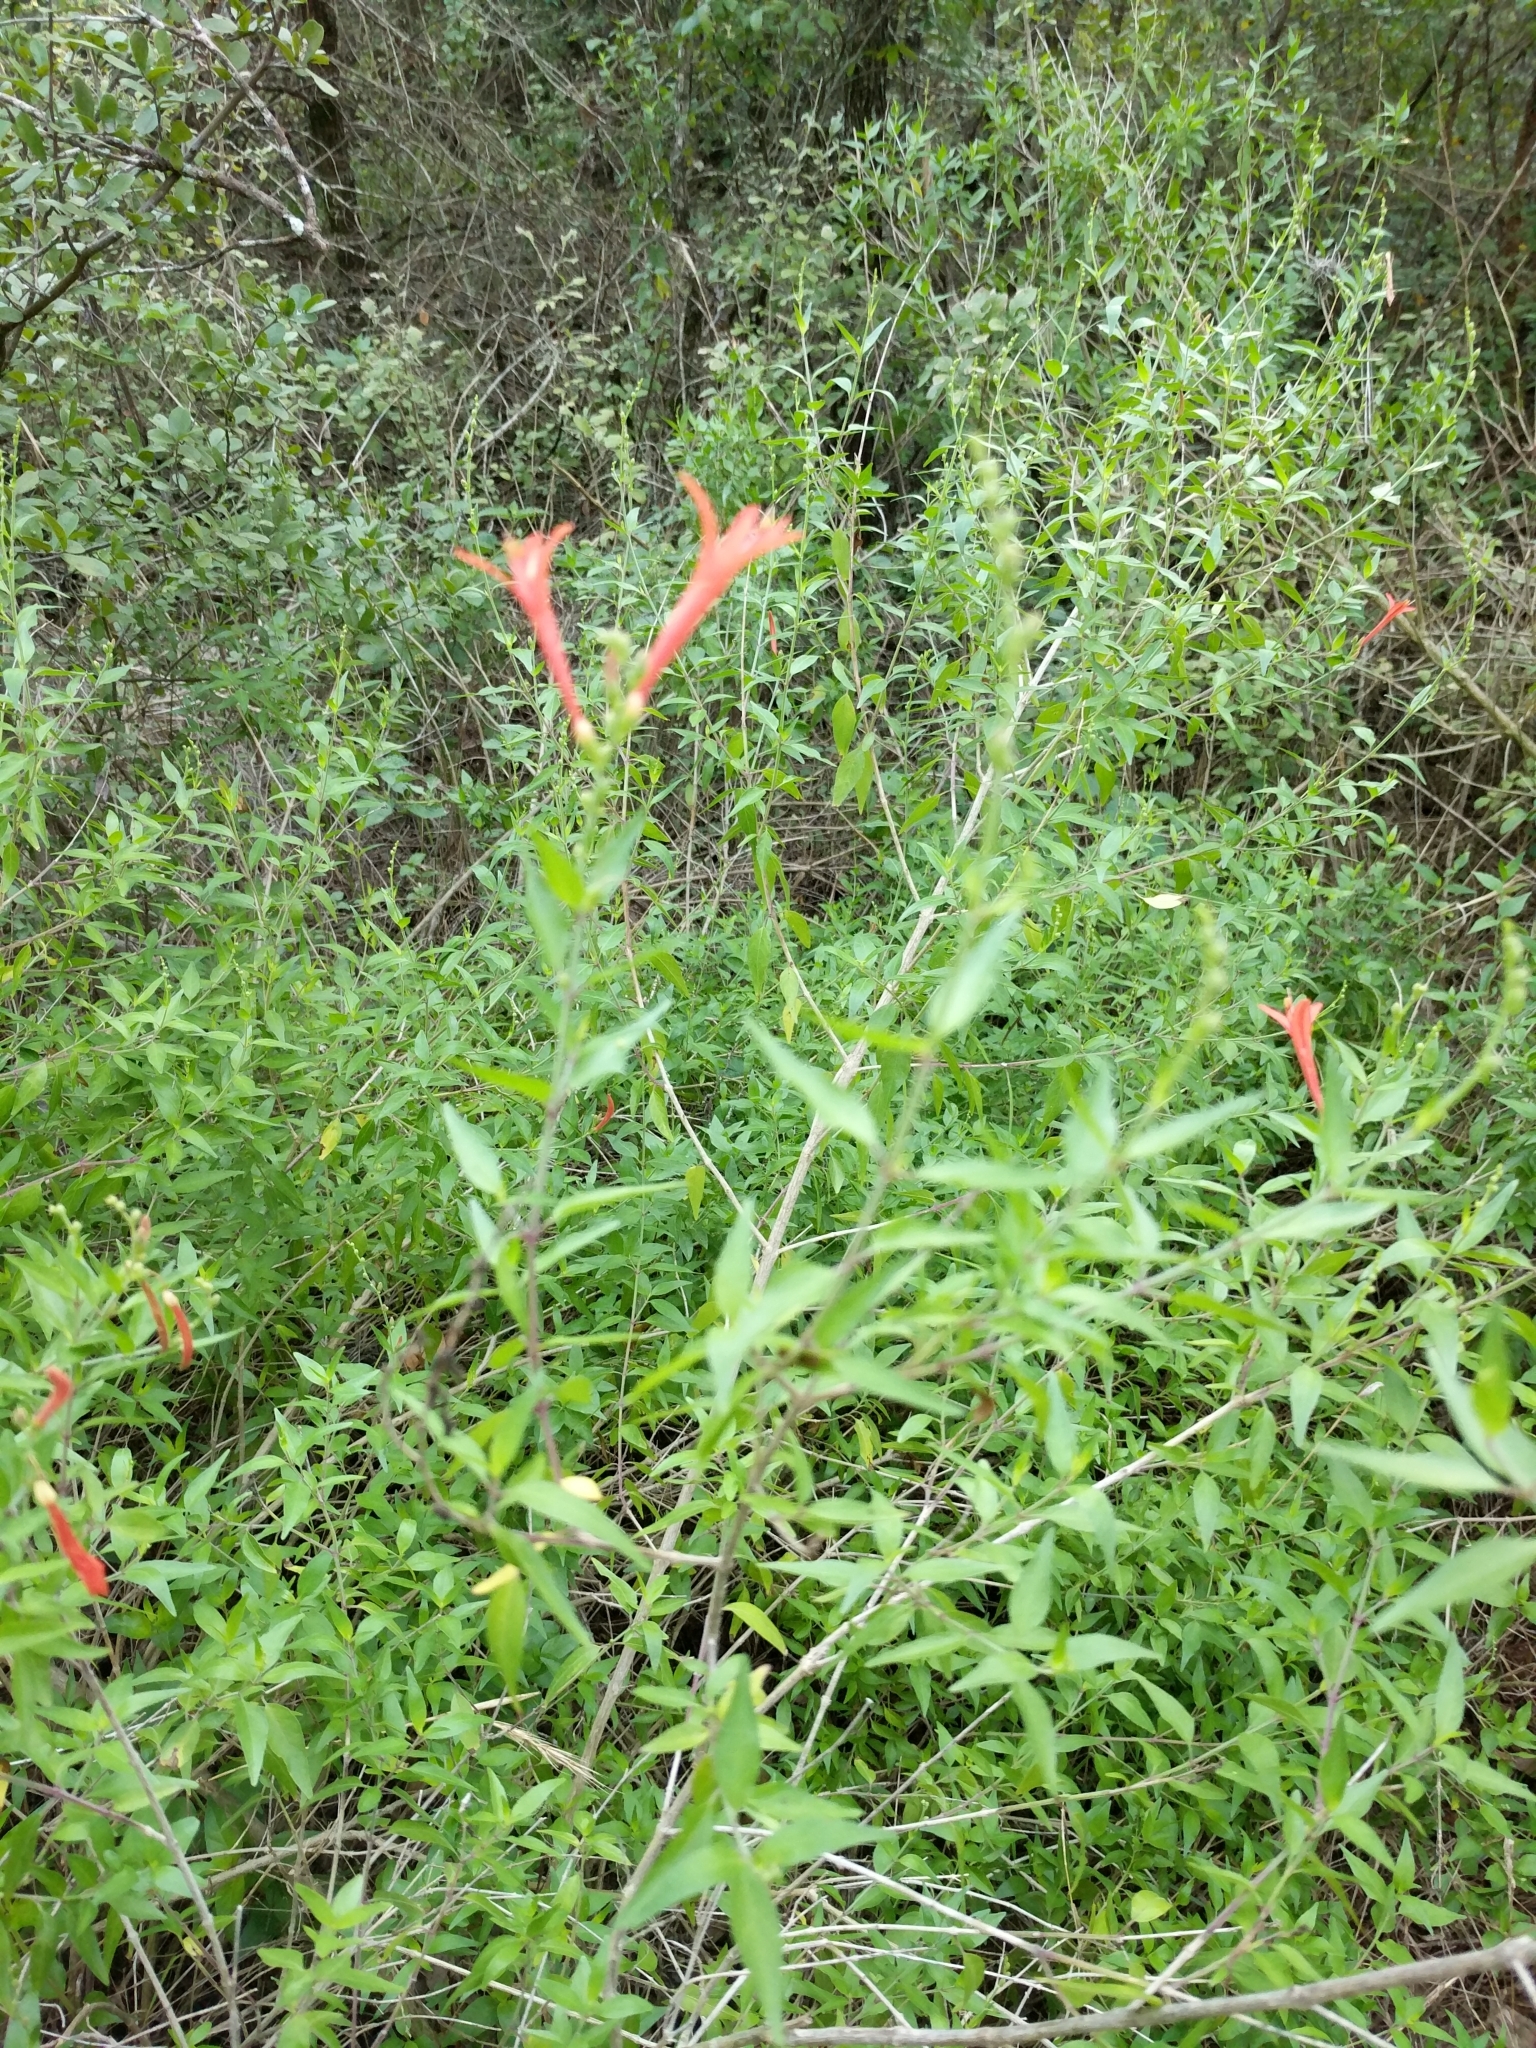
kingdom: Plantae
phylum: Tracheophyta
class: Magnoliopsida
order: Lamiales
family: Acanthaceae
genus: Anisacanthus
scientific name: Anisacanthus quadrifidus
